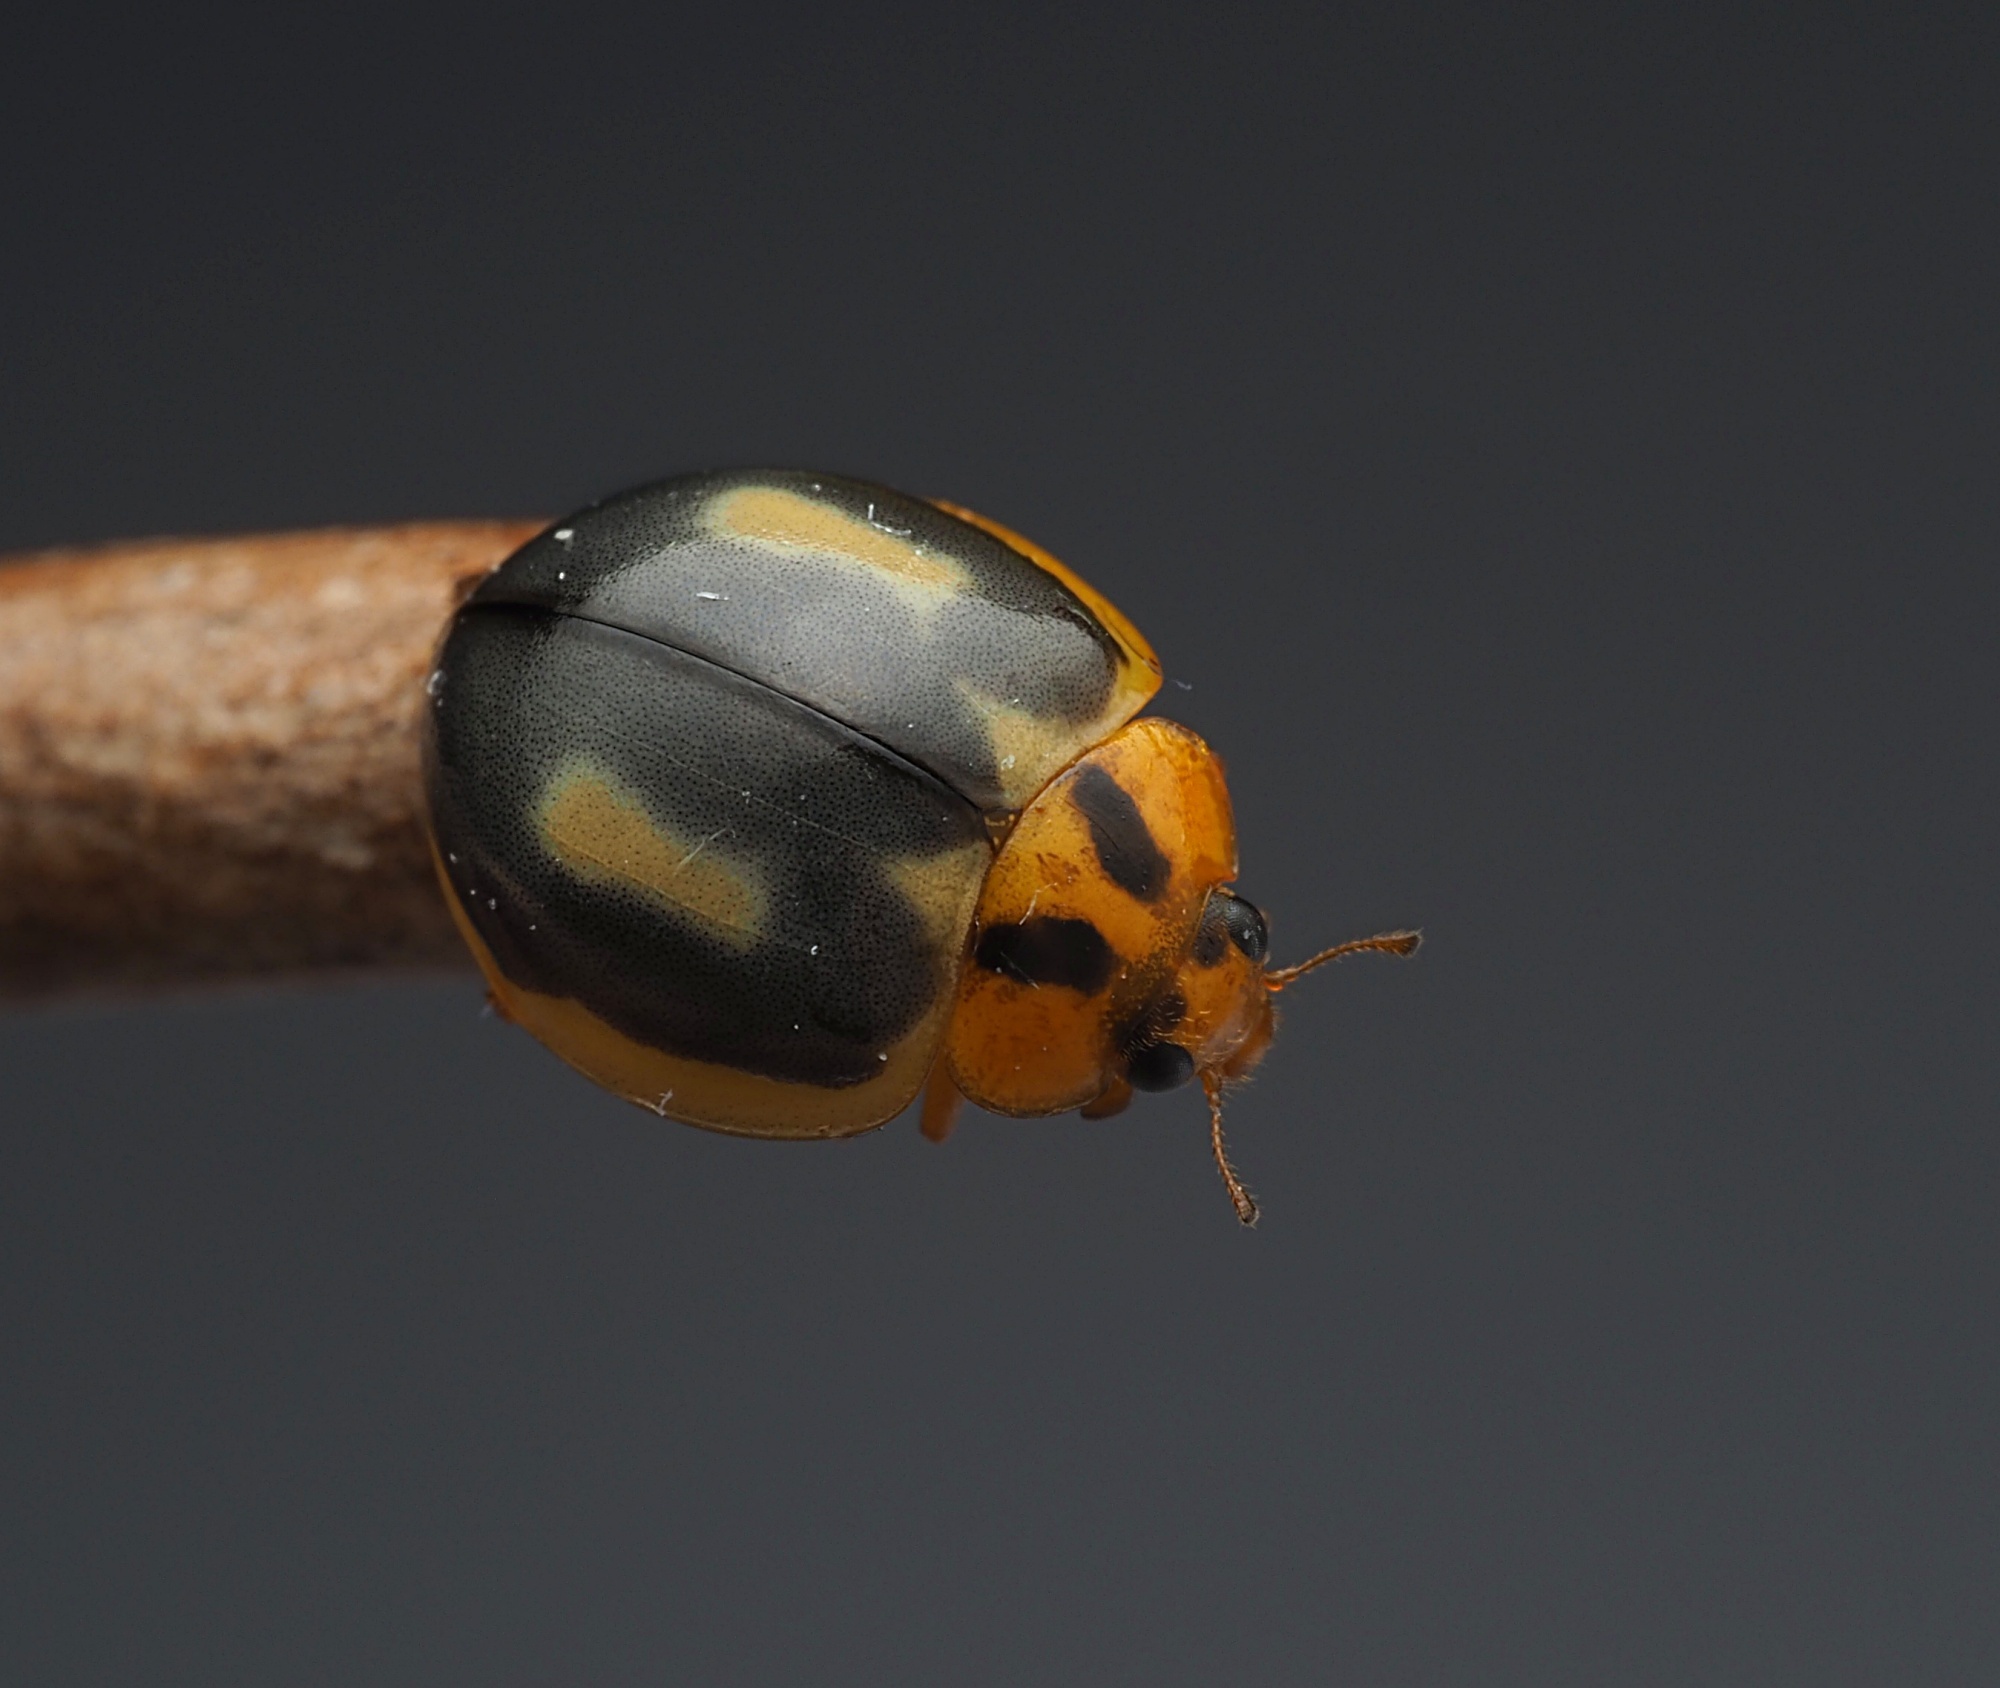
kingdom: Animalia
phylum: Arthropoda
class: Insecta
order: Coleoptera
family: Coccinellidae
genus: Harmonia
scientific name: Harmonia
